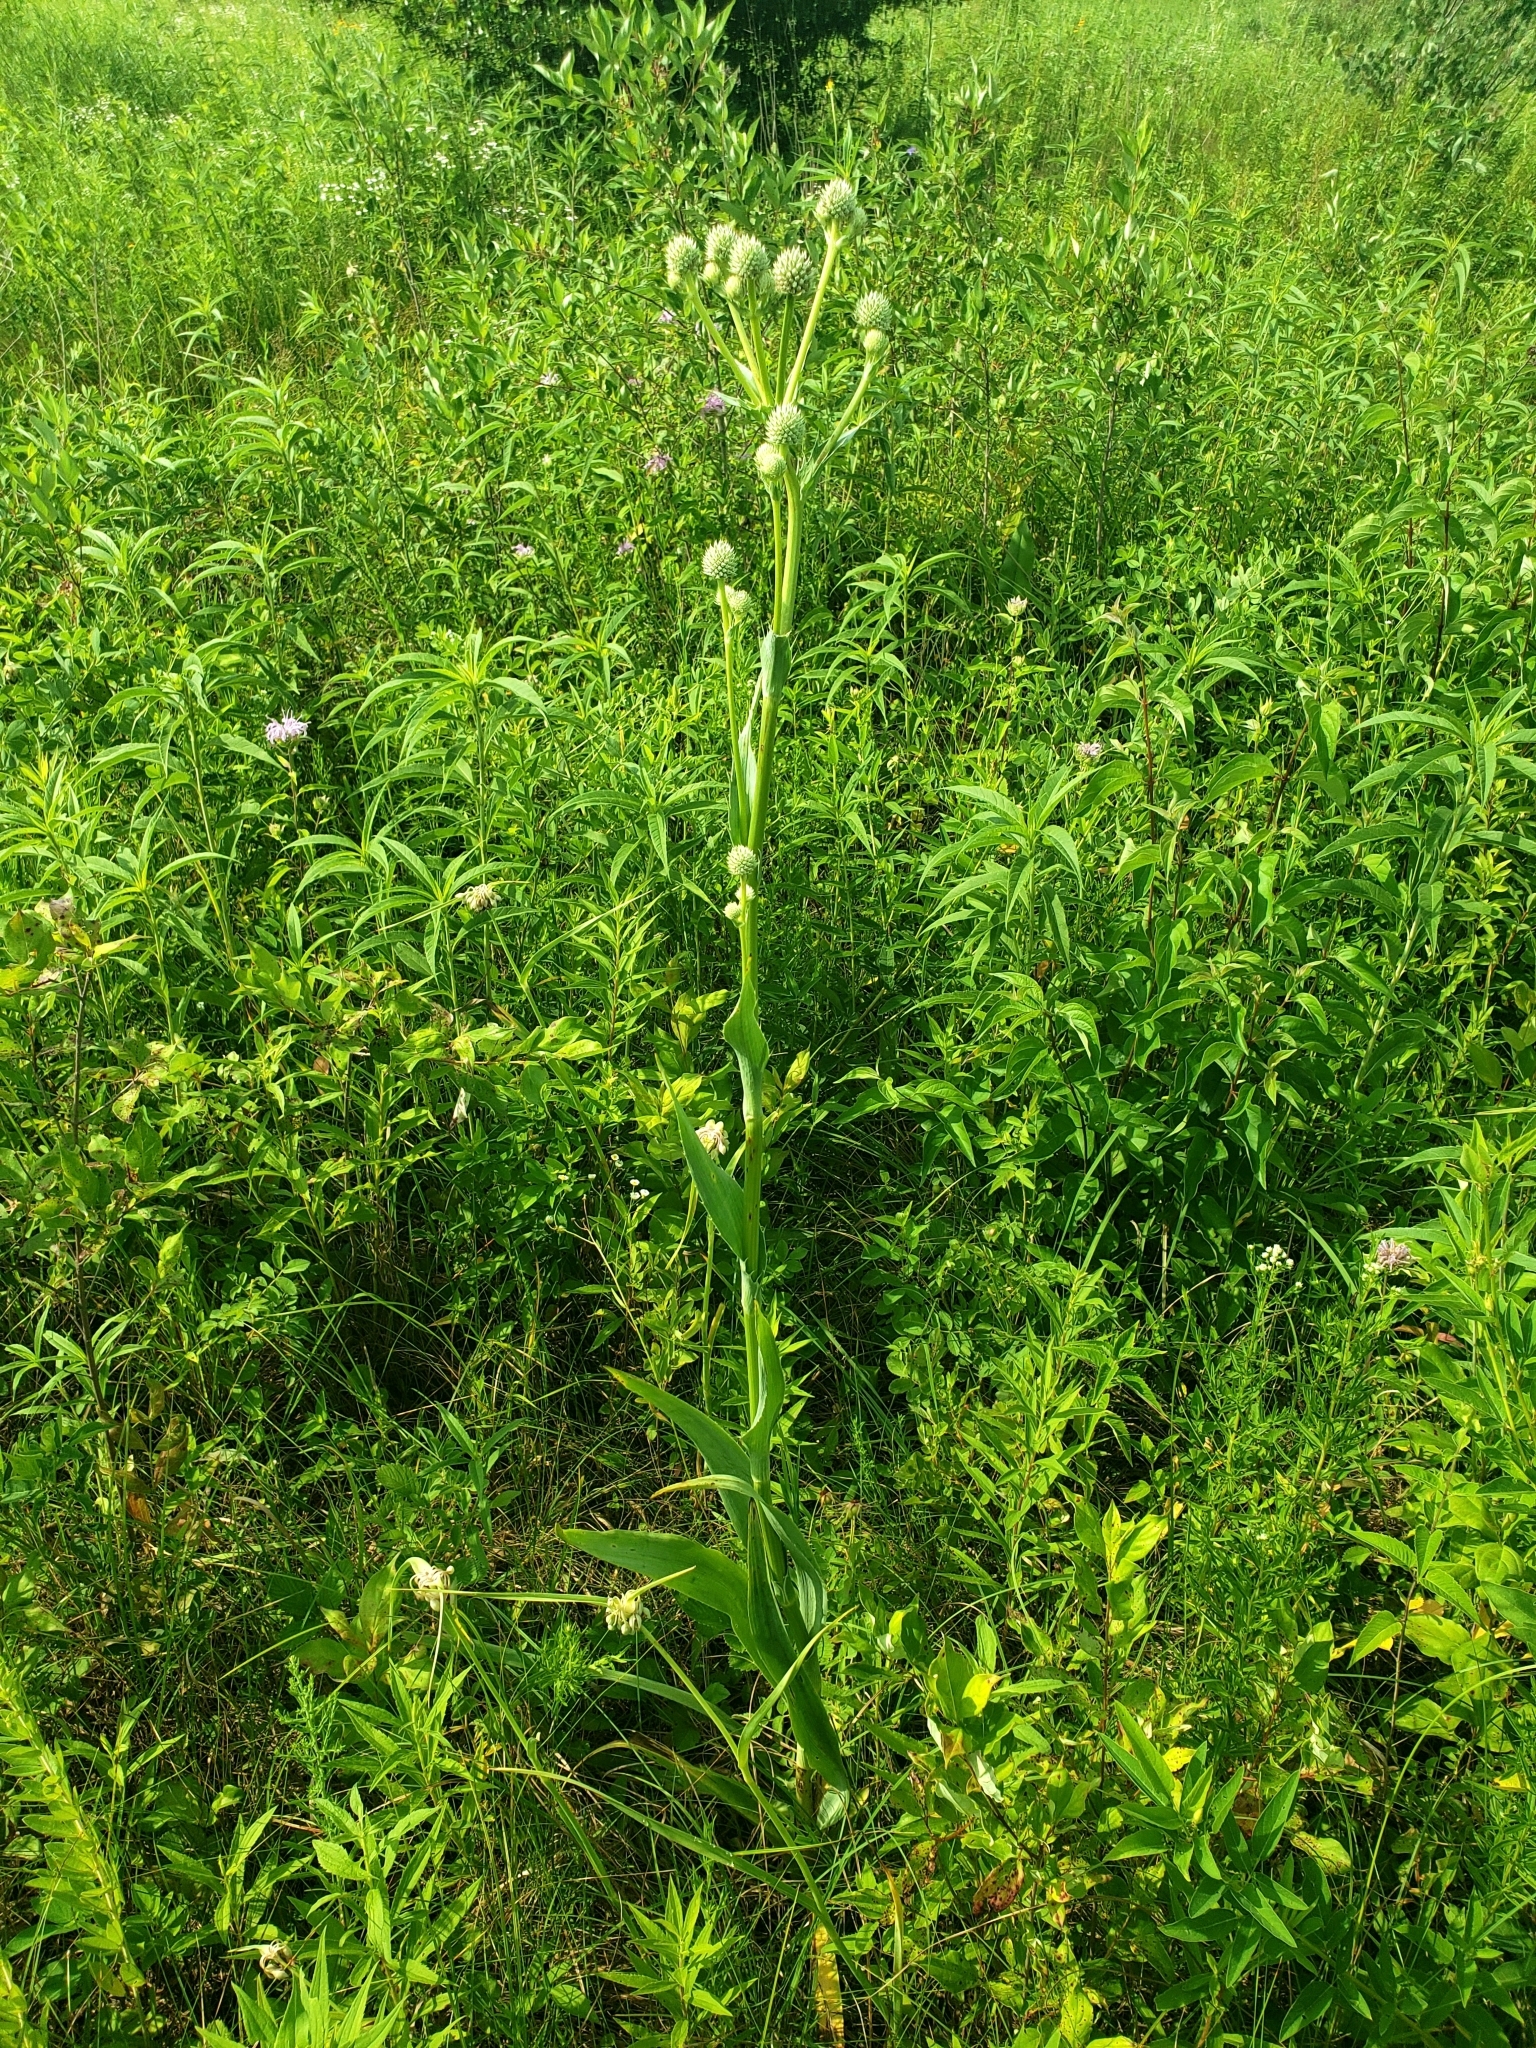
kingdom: Plantae
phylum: Tracheophyta
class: Magnoliopsida
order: Apiales
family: Apiaceae
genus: Eryngium
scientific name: Eryngium yuccifolium
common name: Button eryngo
